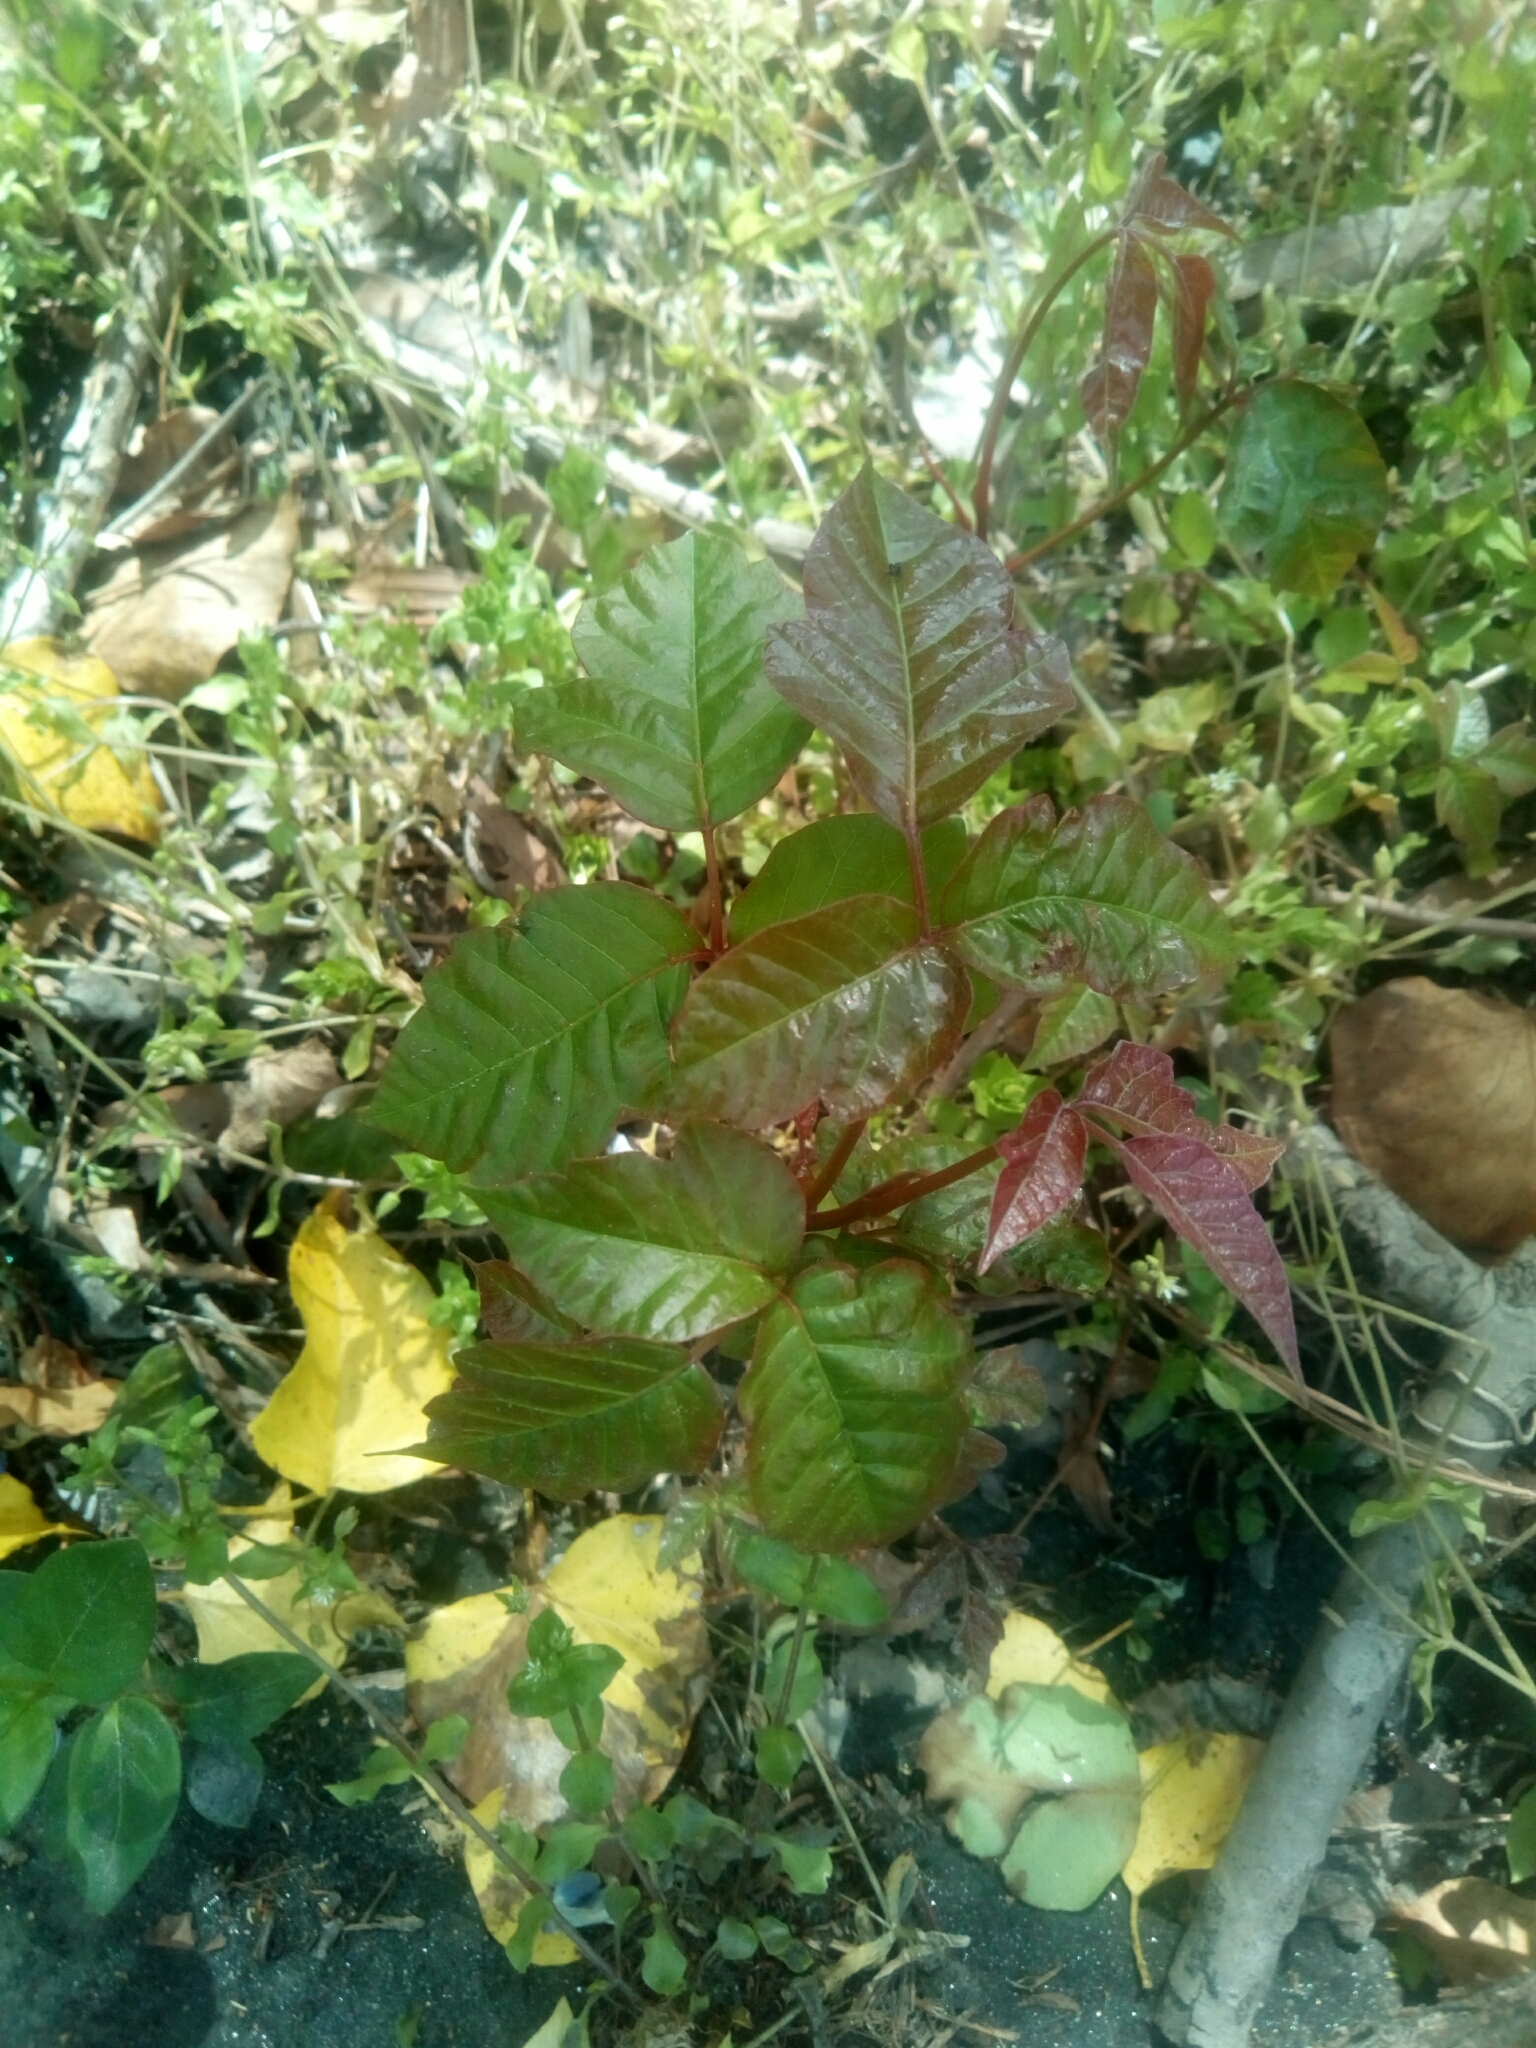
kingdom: Plantae
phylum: Tracheophyta
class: Magnoliopsida
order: Sapindales
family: Anacardiaceae
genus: Toxicodendron
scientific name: Toxicodendron radicans
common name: Poison ivy
